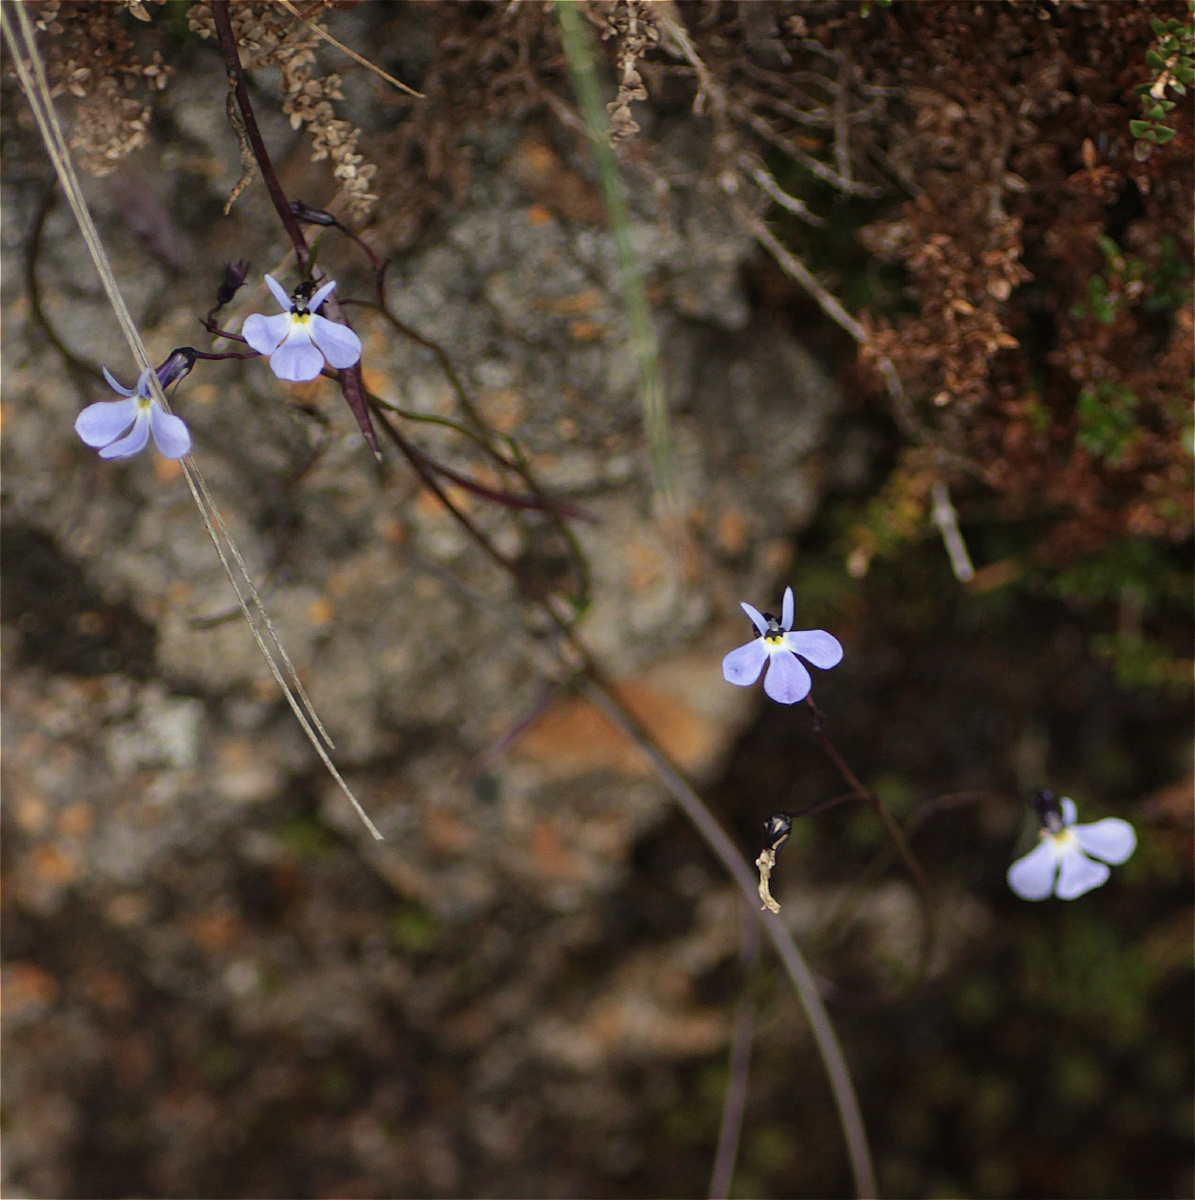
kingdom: Plantae
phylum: Tracheophyta
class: Magnoliopsida
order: Asterales
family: Campanulaceae
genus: Lobelia
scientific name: Lobelia tenera
